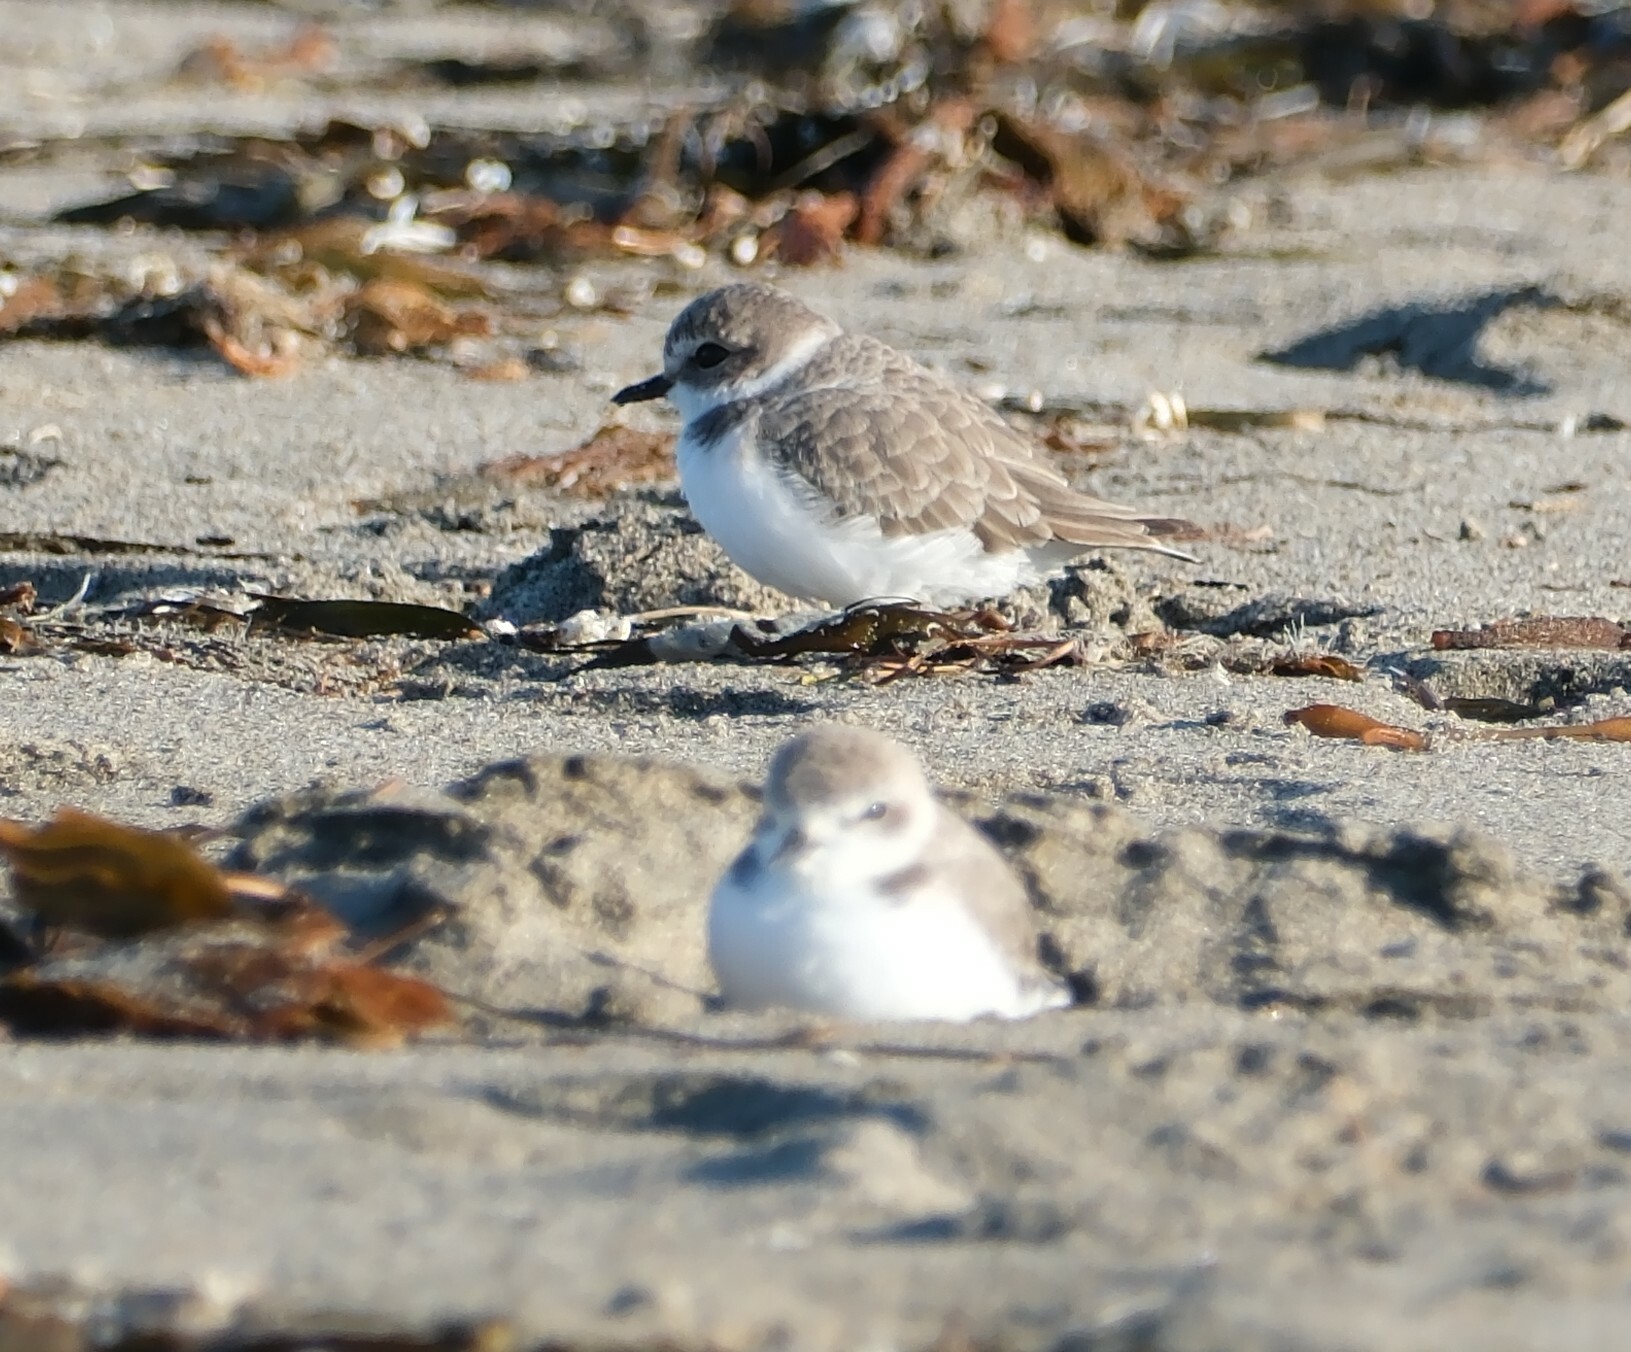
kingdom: Animalia
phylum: Chordata
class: Aves
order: Charadriiformes
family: Charadriidae
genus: Anarhynchus
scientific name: Anarhynchus
